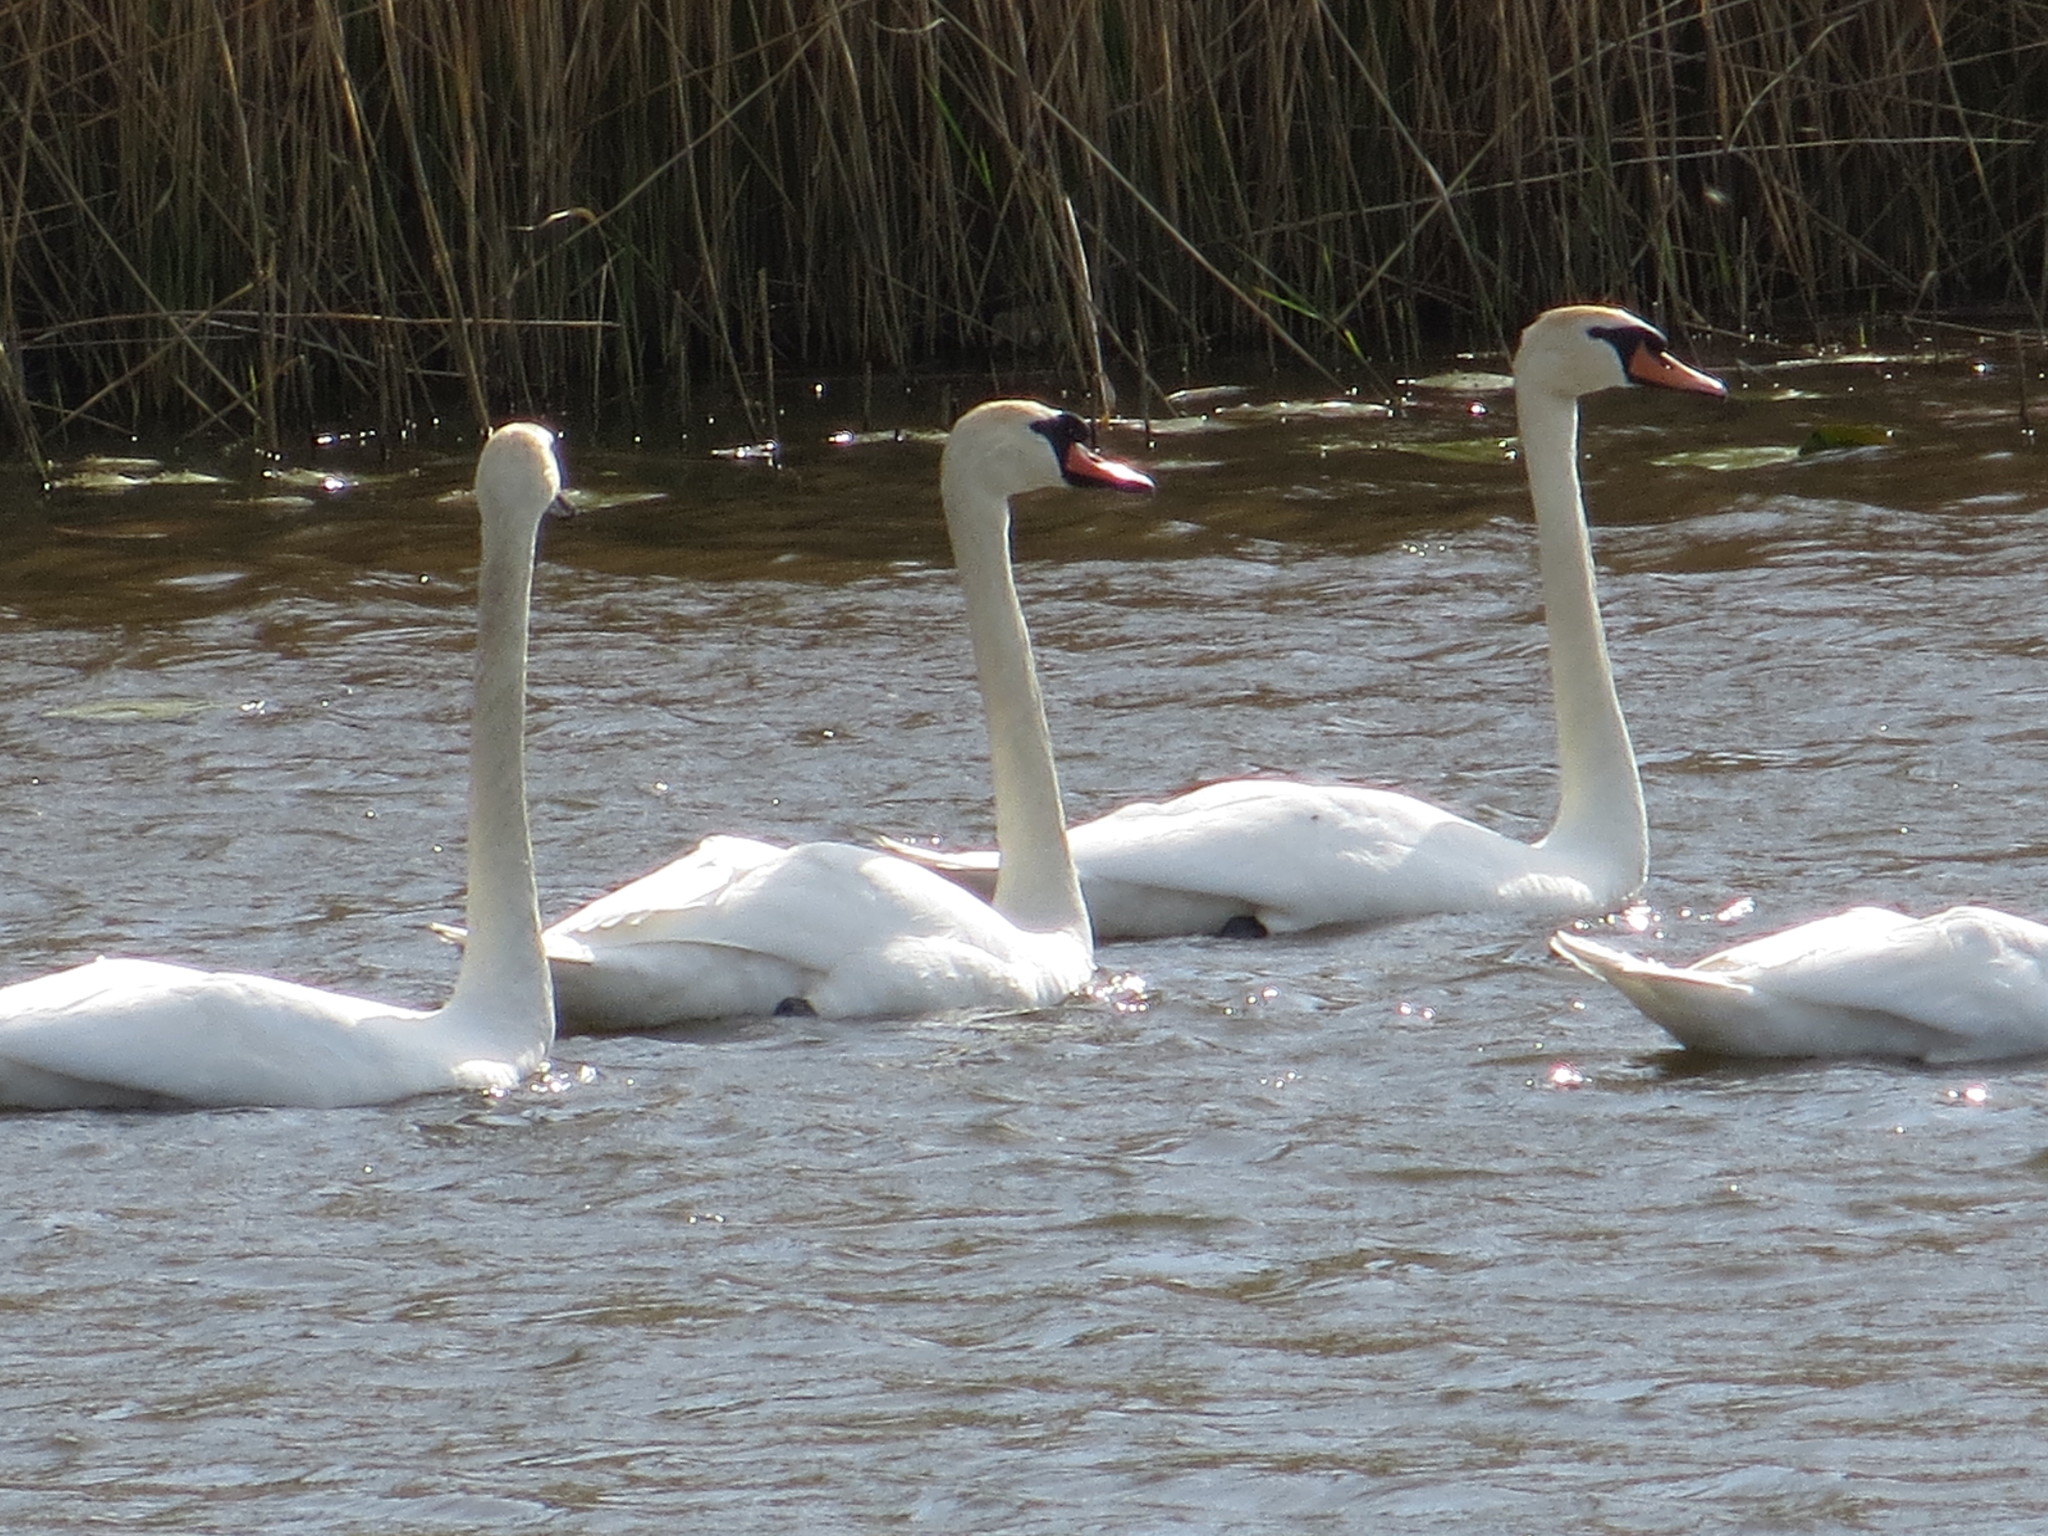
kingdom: Animalia
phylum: Chordata
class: Aves
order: Anseriformes
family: Anatidae
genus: Cygnus
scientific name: Cygnus olor
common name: Mute swan
